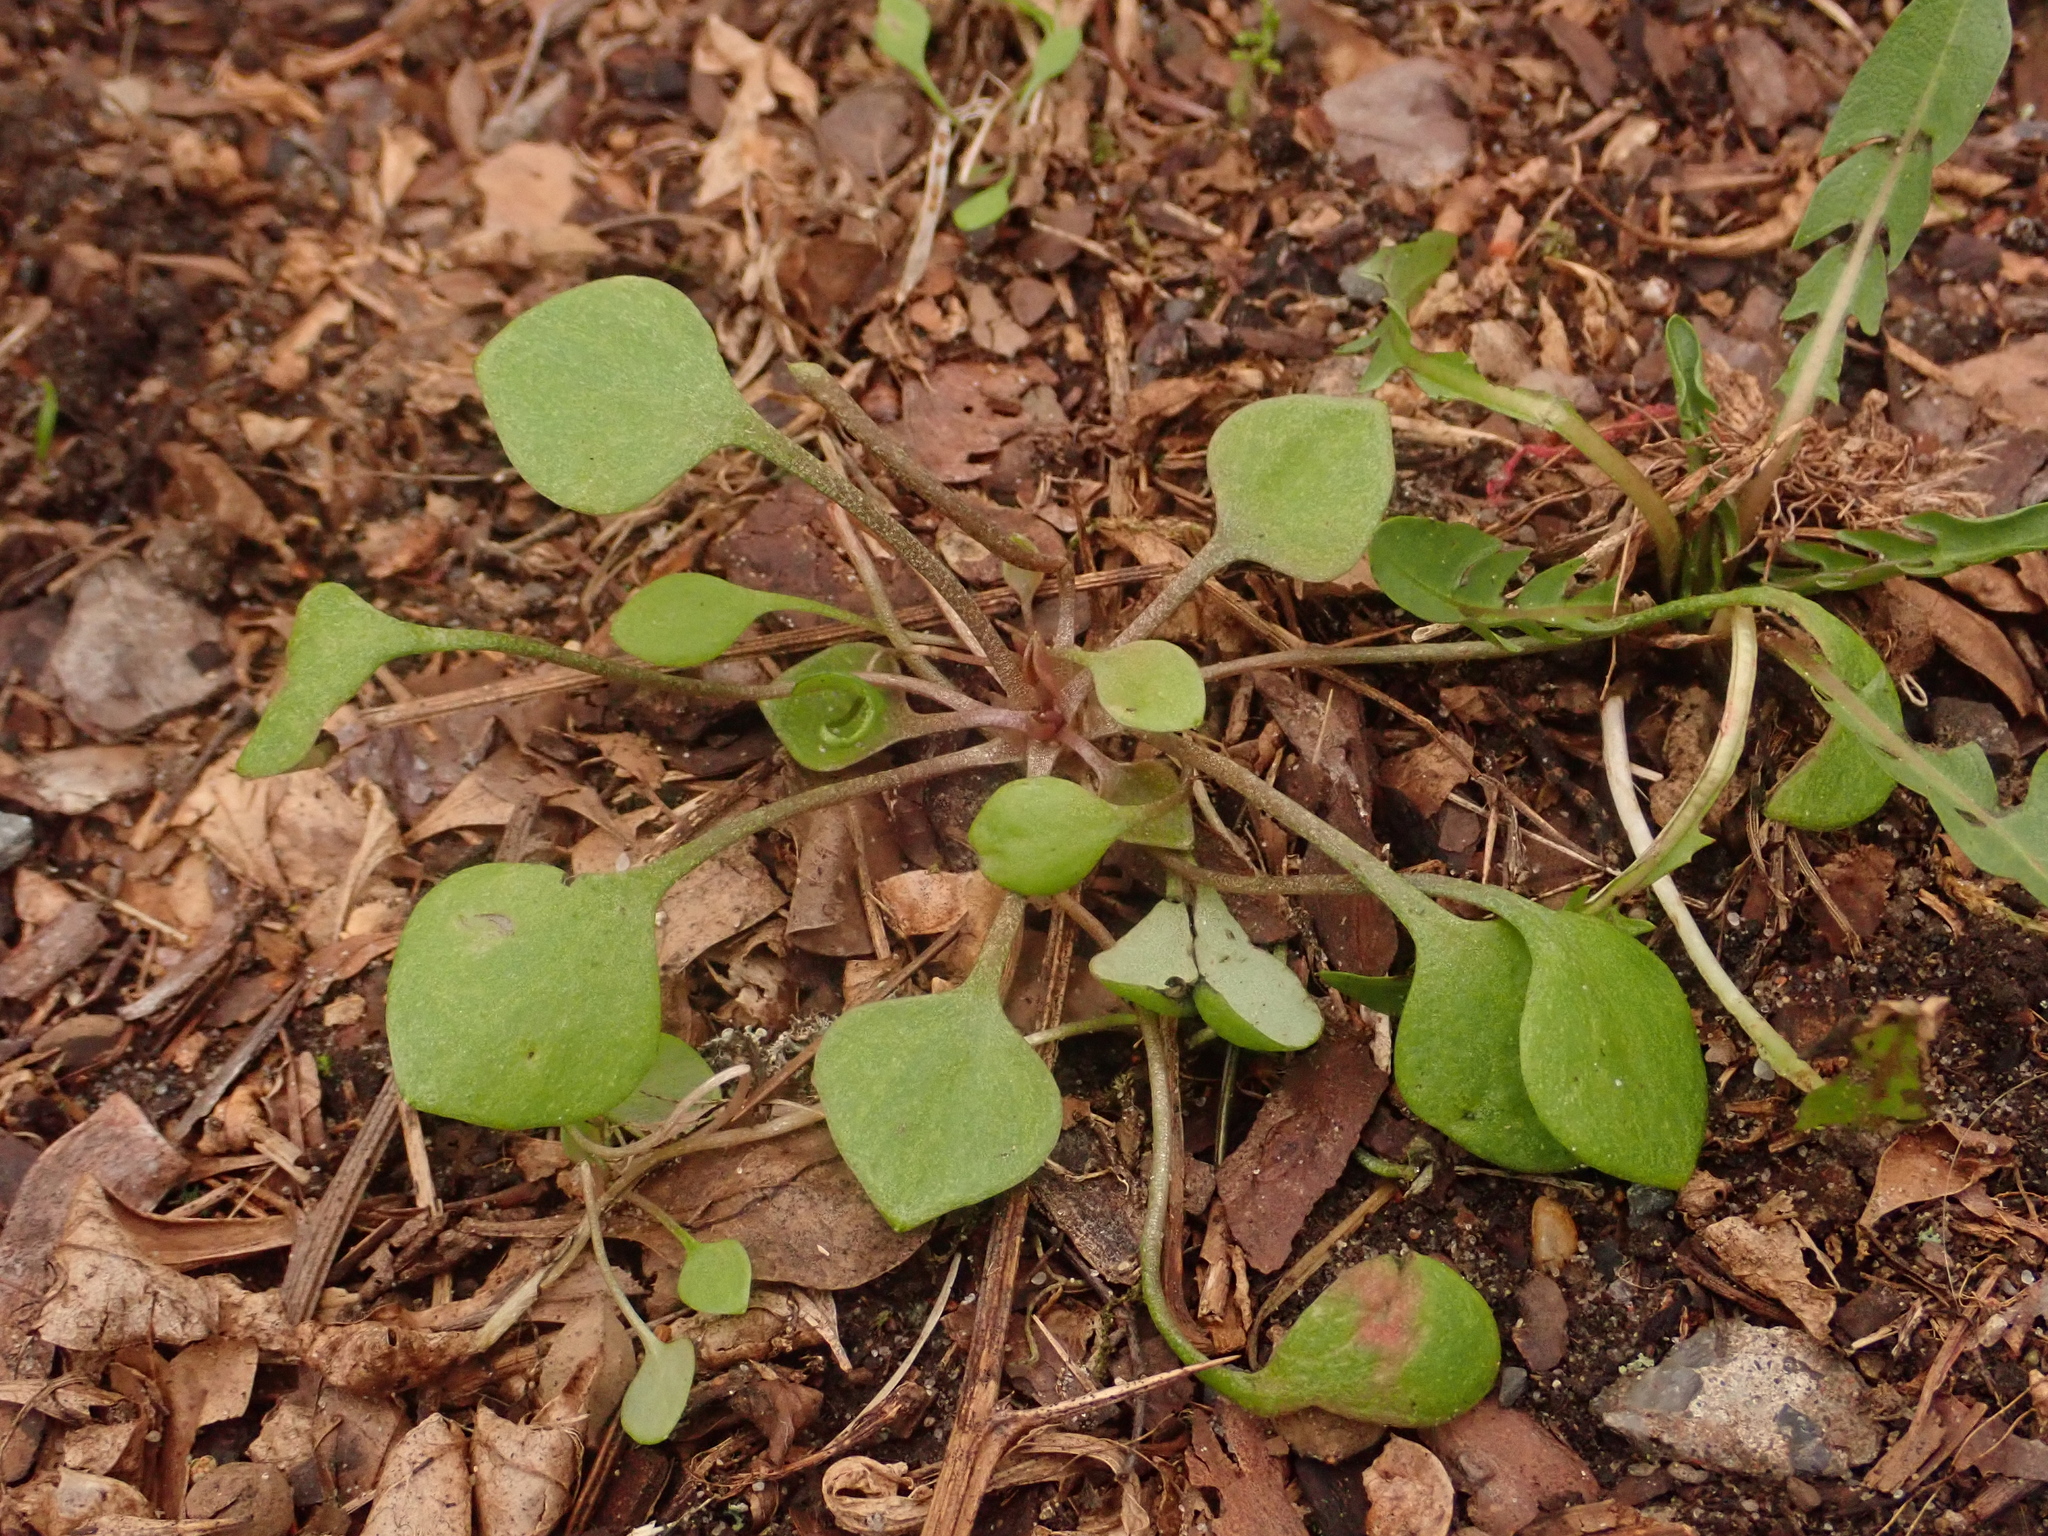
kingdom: Plantae
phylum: Tracheophyta
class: Magnoliopsida
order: Caryophyllales
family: Montiaceae
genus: Claytonia
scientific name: Claytonia perfoliata
